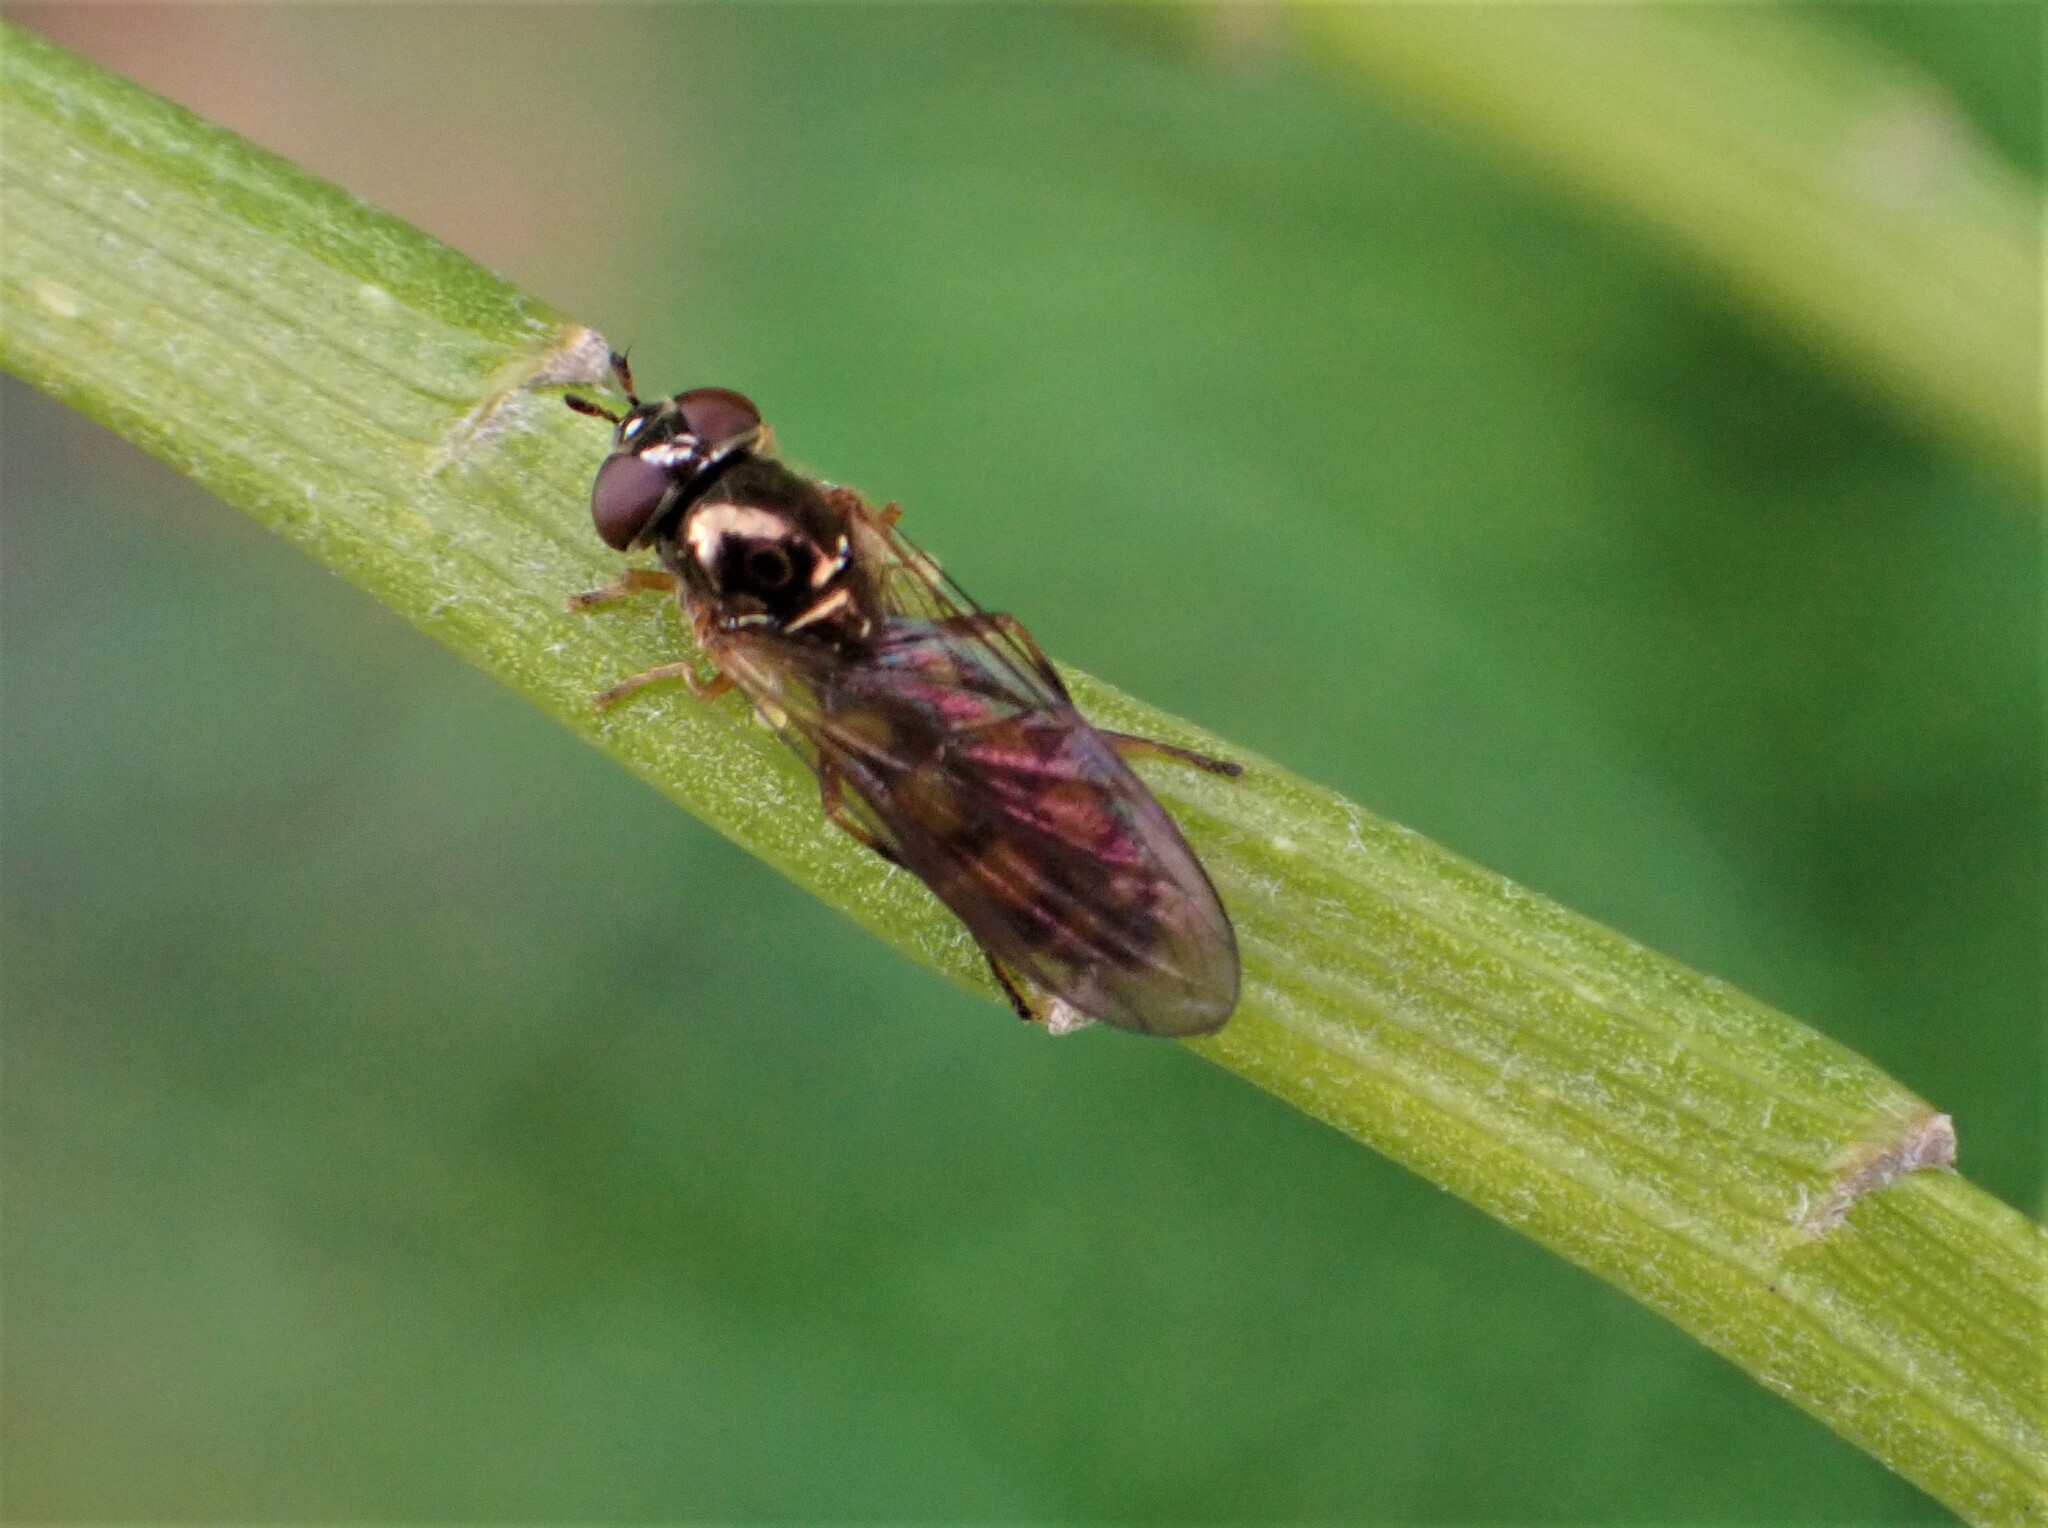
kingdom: Animalia
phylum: Arthropoda
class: Insecta
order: Diptera
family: Syrphidae
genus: Melanostoma
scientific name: Melanostoma fasciatum
